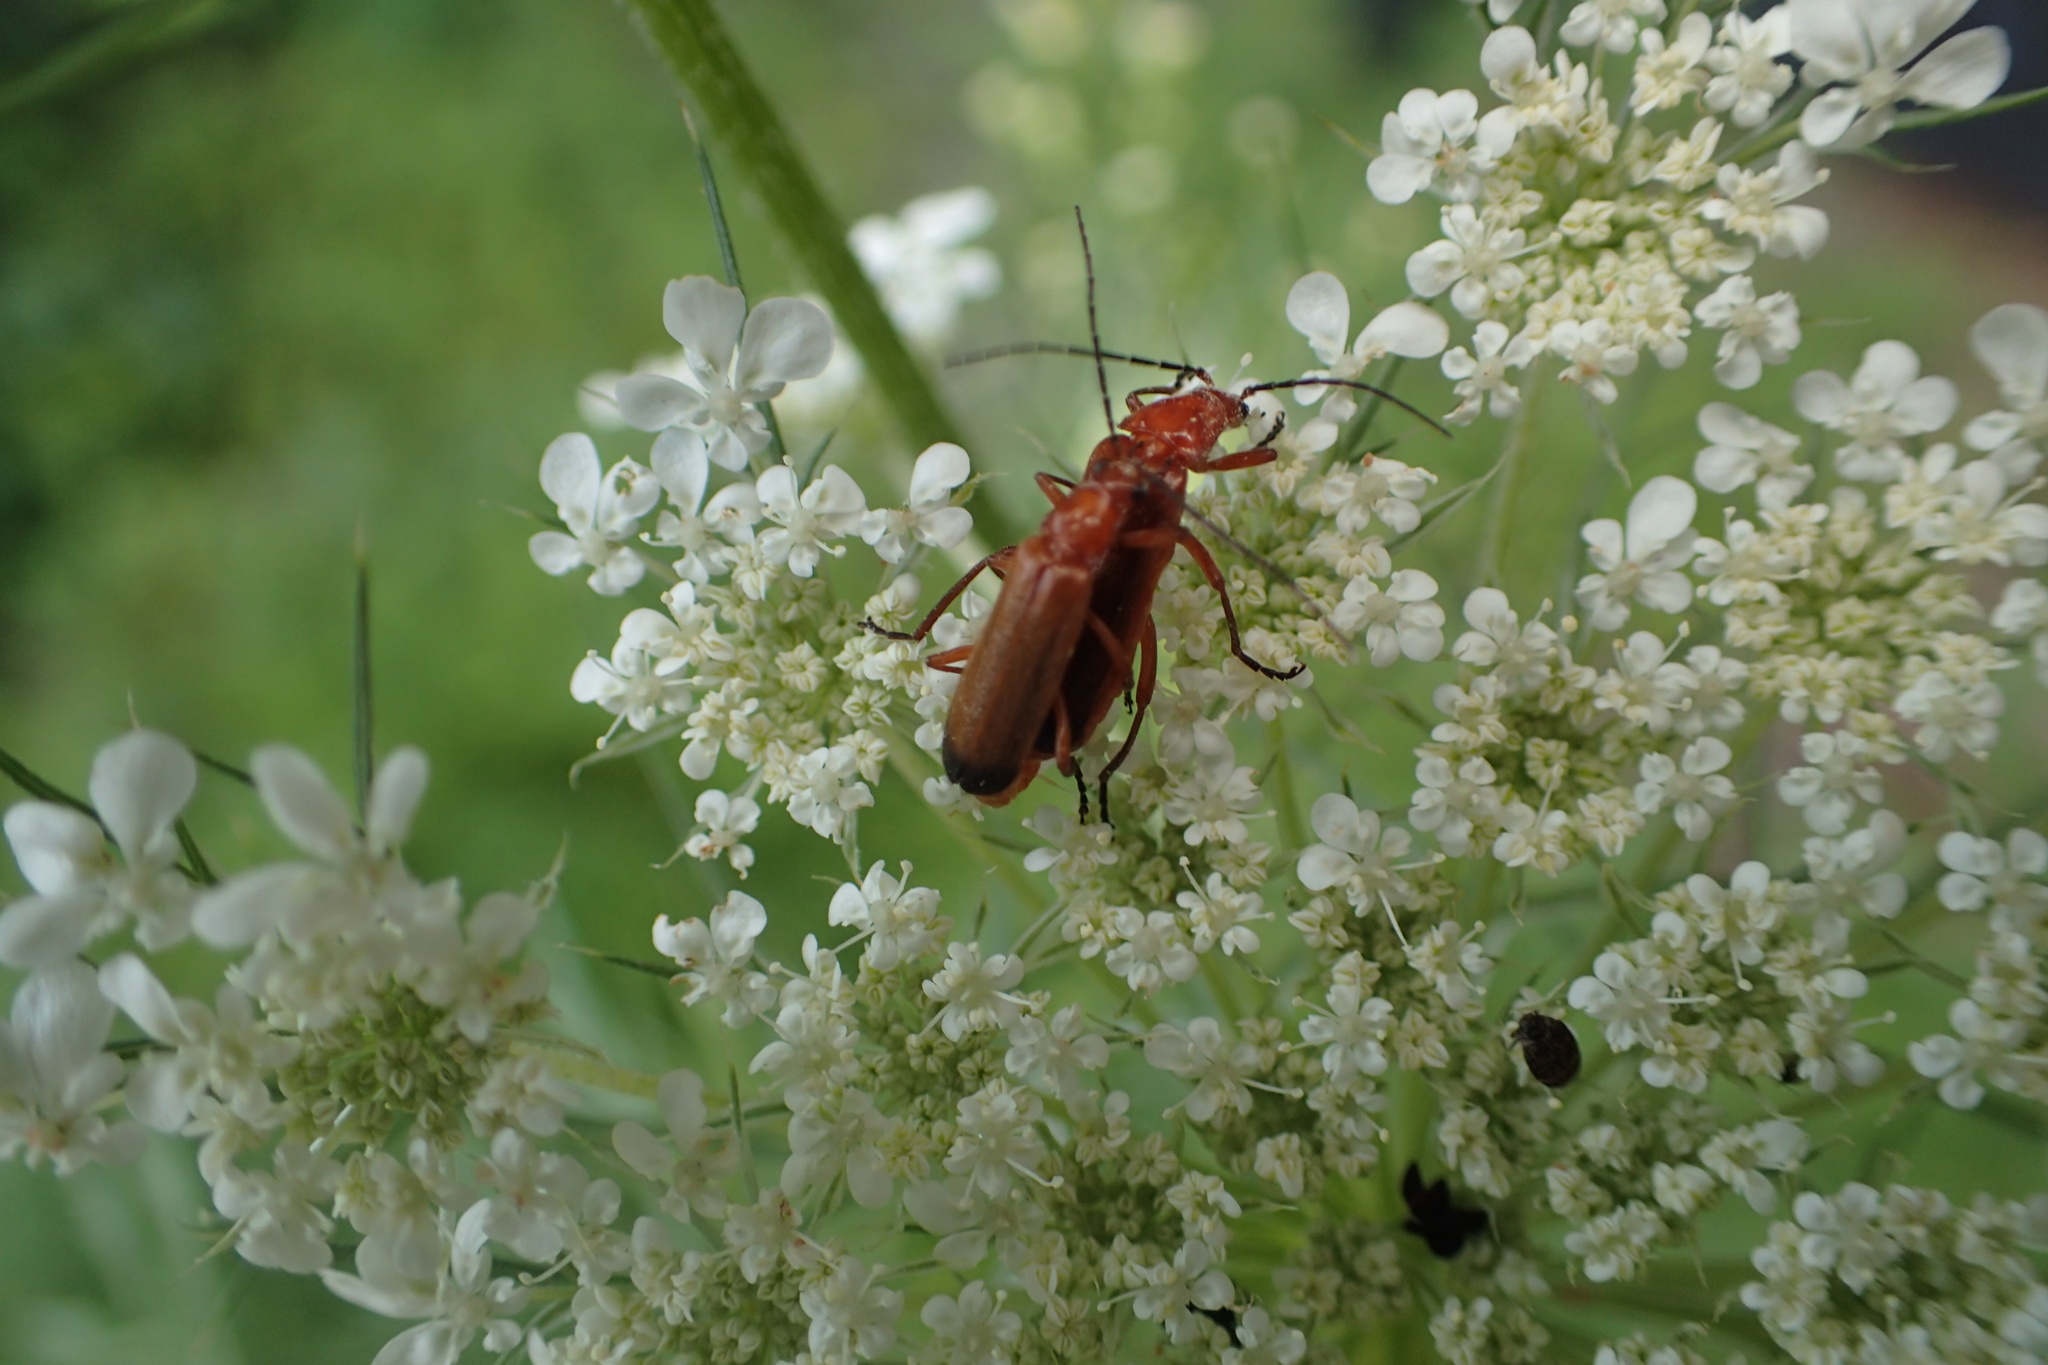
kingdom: Animalia
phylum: Arthropoda
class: Insecta
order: Coleoptera
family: Cantharidae
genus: Rhagonycha
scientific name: Rhagonycha fulva
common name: Common red soldier beetle
